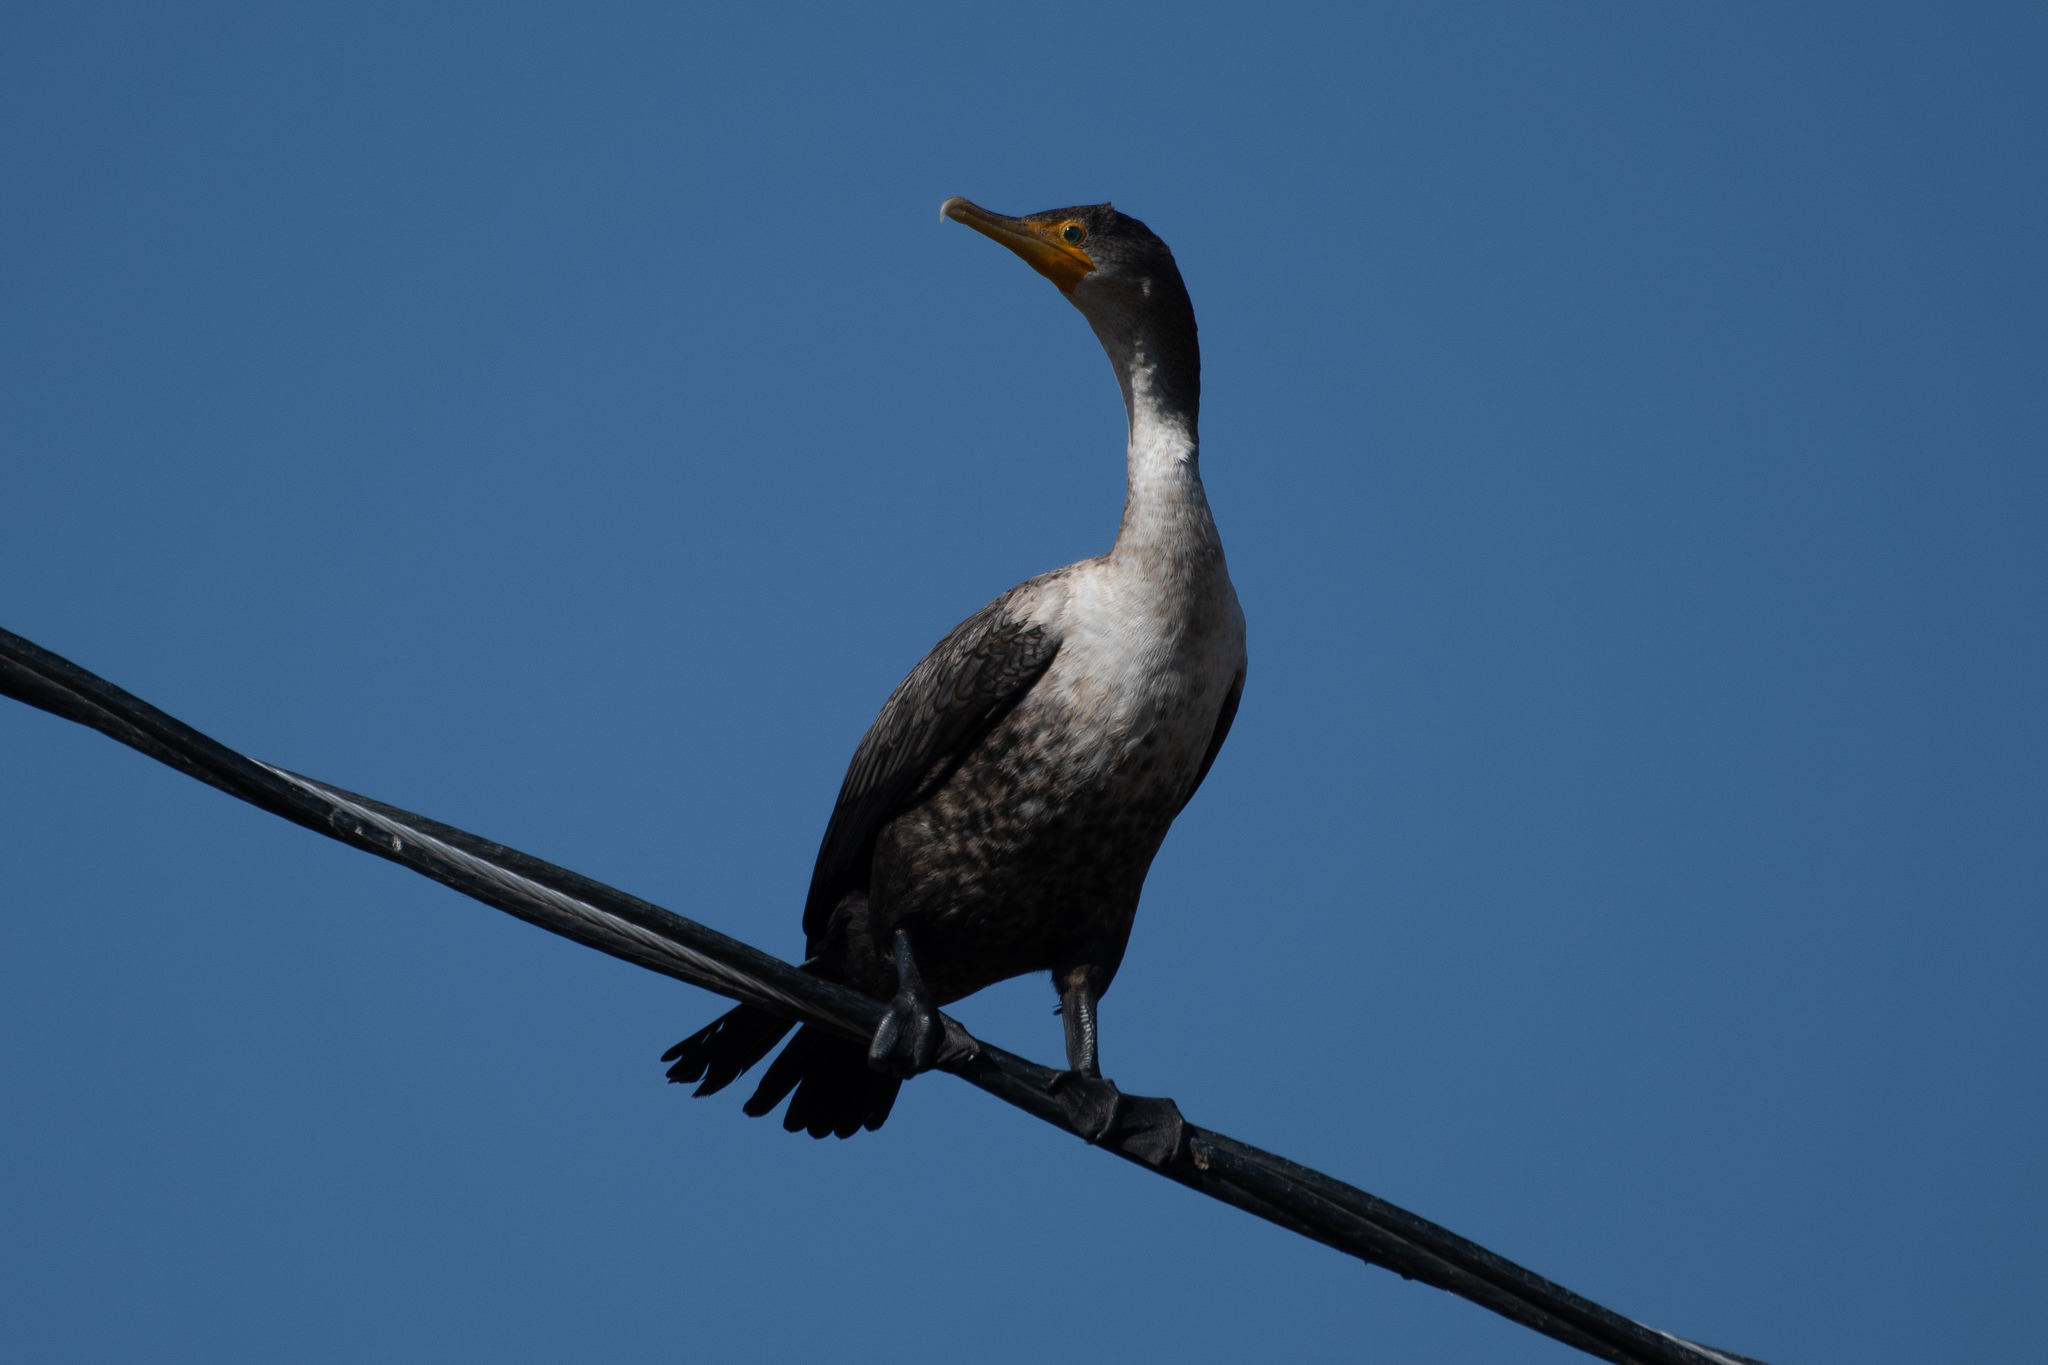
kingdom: Animalia
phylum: Chordata
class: Aves
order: Suliformes
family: Phalacrocoracidae
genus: Phalacrocorax
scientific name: Phalacrocorax auritus
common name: Double-crested cormorant
